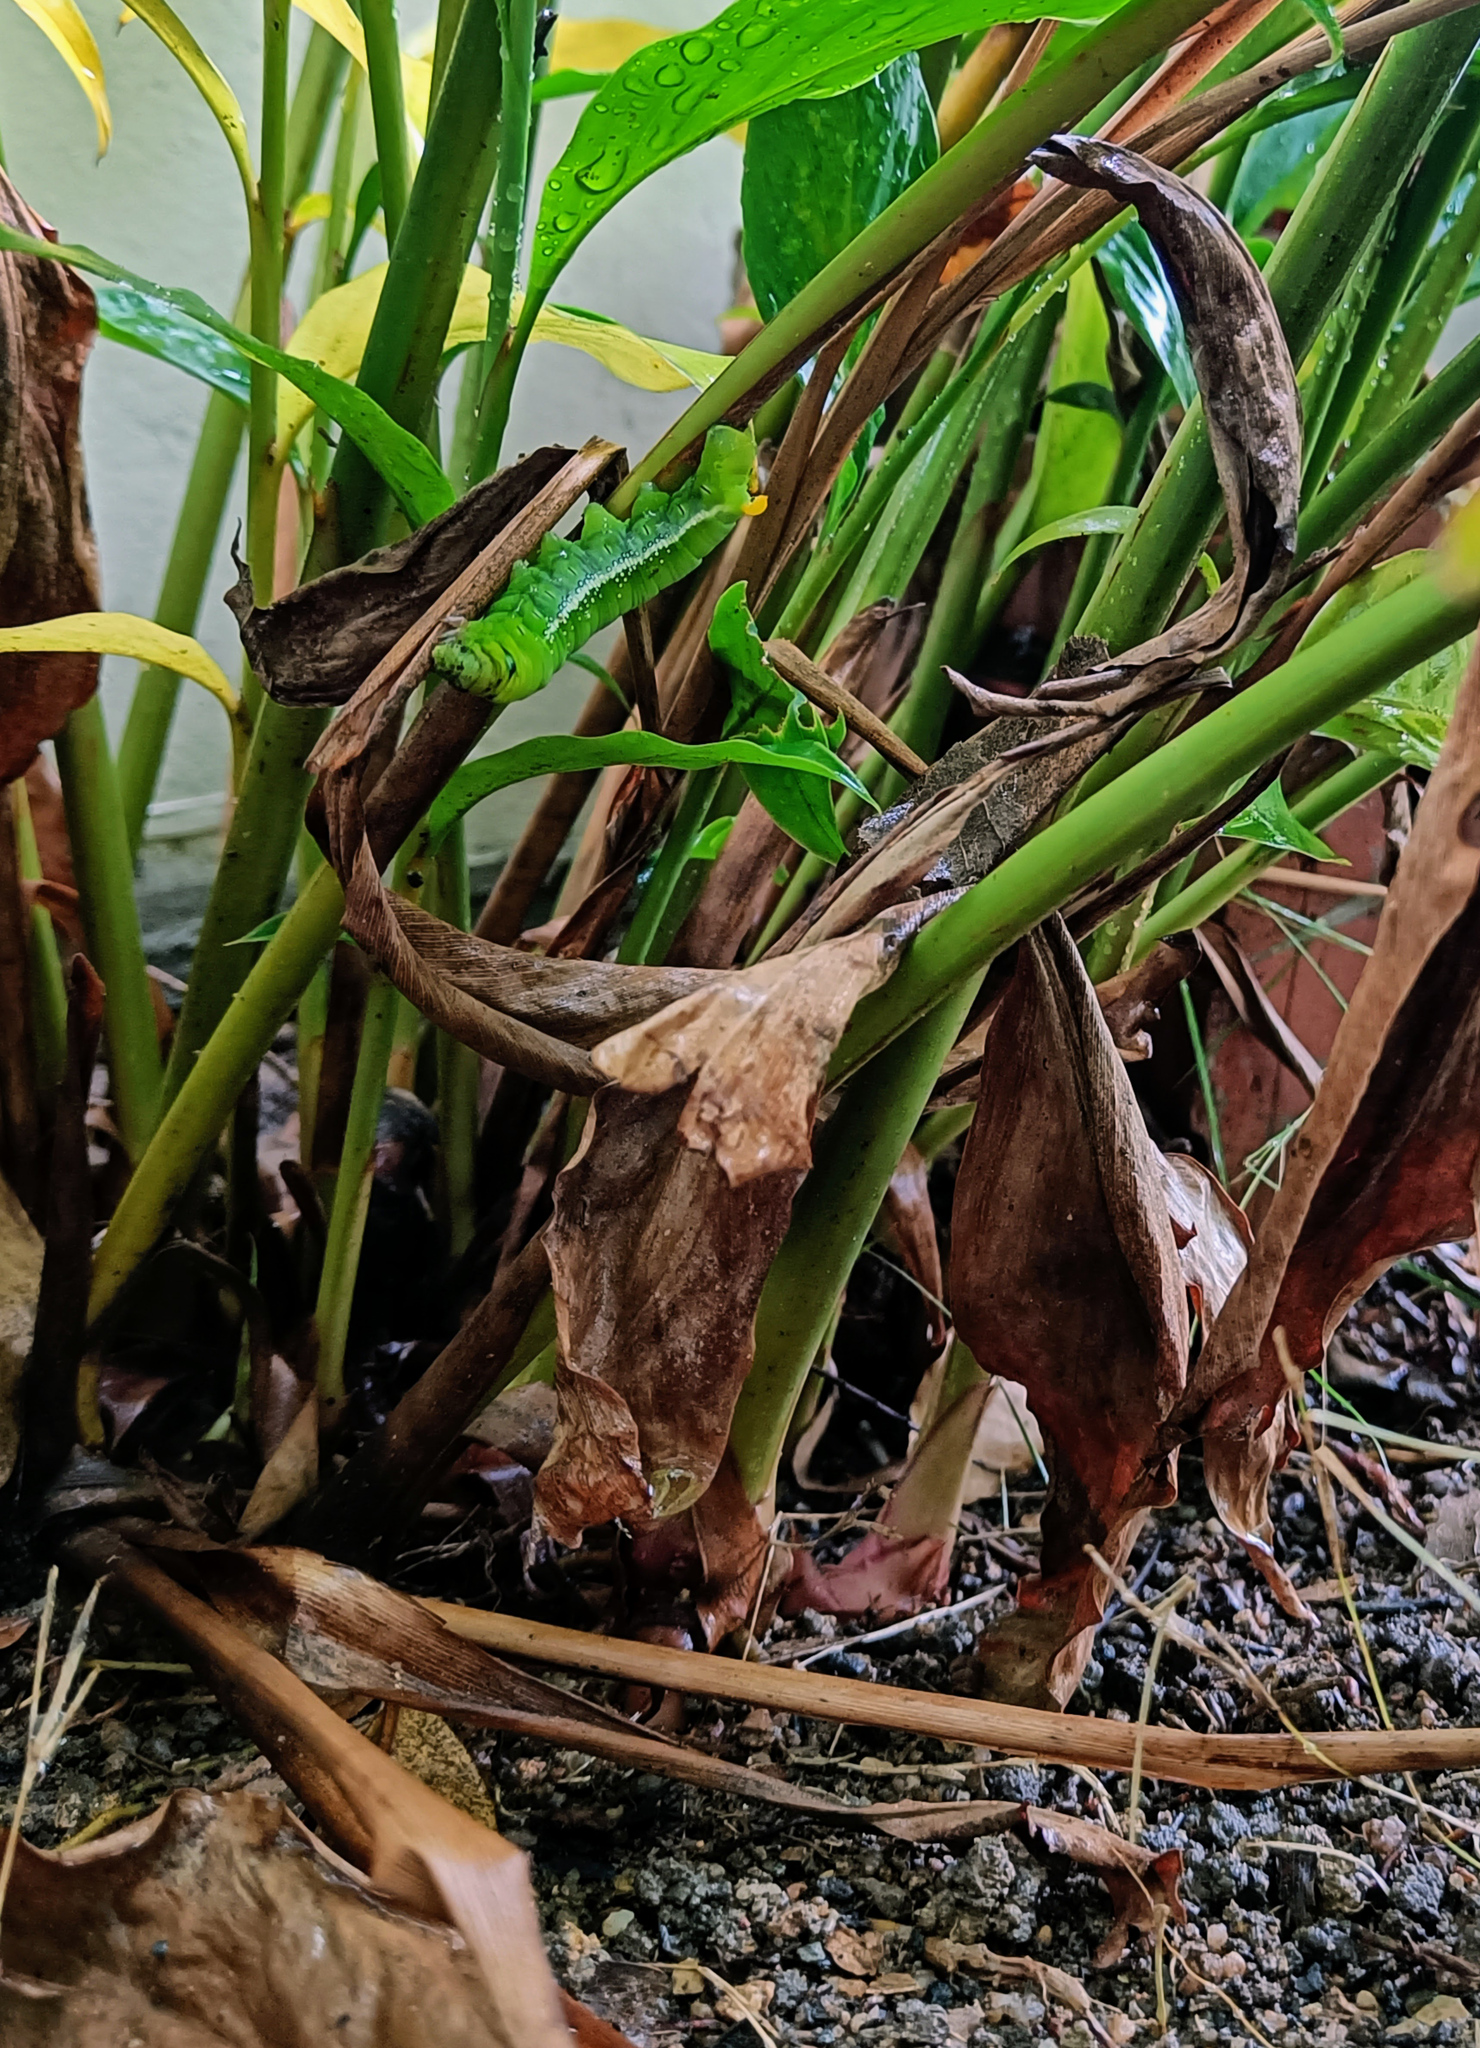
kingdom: Animalia
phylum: Arthropoda
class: Insecta
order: Lepidoptera
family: Sphingidae
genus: Daphnis
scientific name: Daphnis nerii
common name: Oleander hawk-moth
